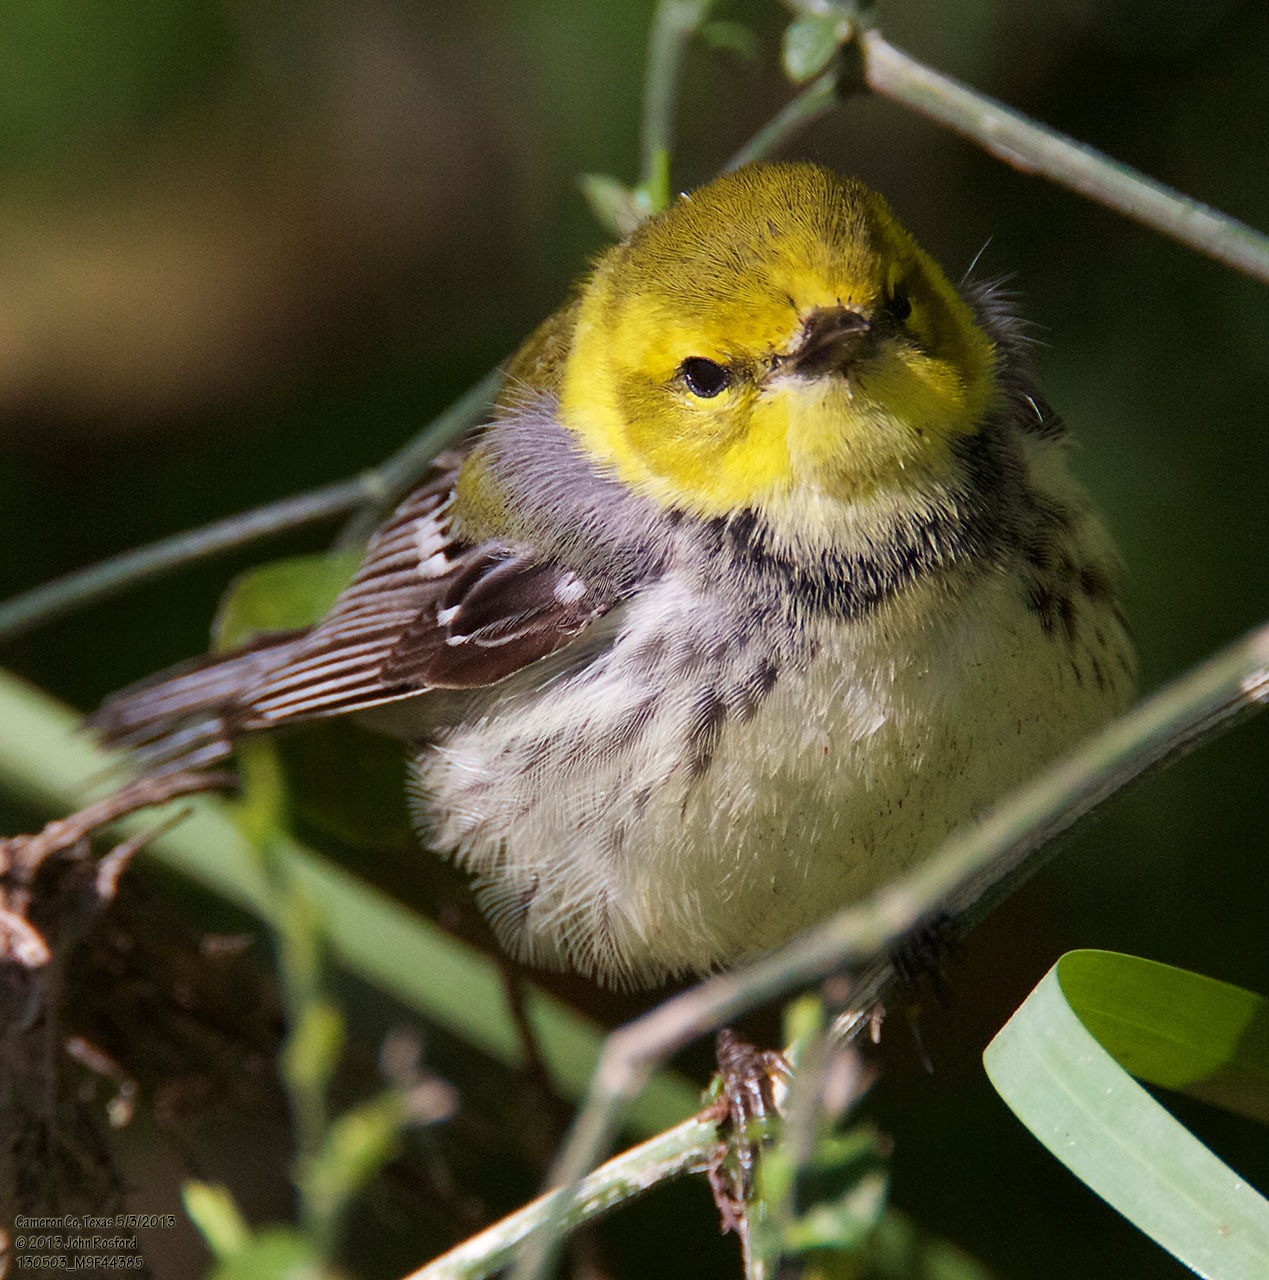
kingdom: Animalia
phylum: Chordata
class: Aves
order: Passeriformes
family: Parulidae
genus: Setophaga
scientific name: Setophaga virens
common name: Black-throated green warbler
